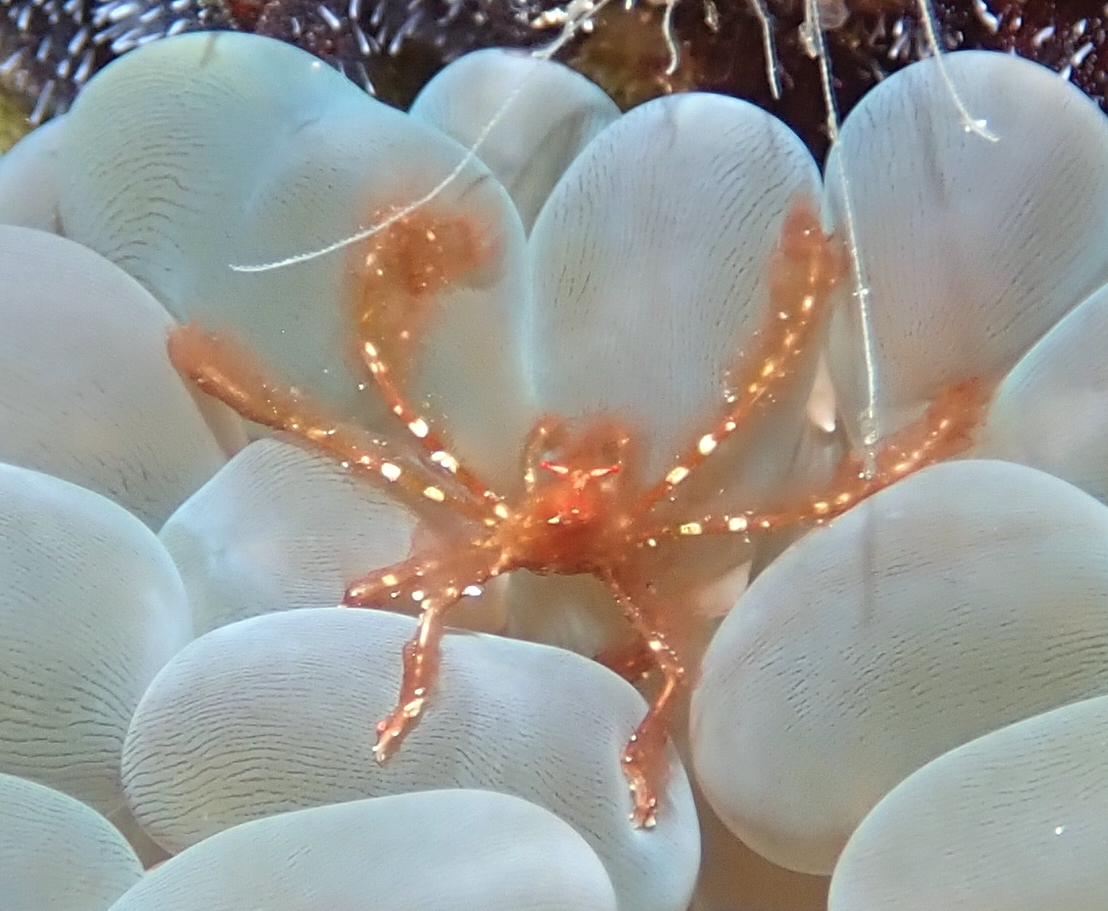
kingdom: Animalia
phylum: Arthropoda
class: Malacostraca
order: Decapoda
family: Inachidae
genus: Achaeus
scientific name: Achaeus japonicus
